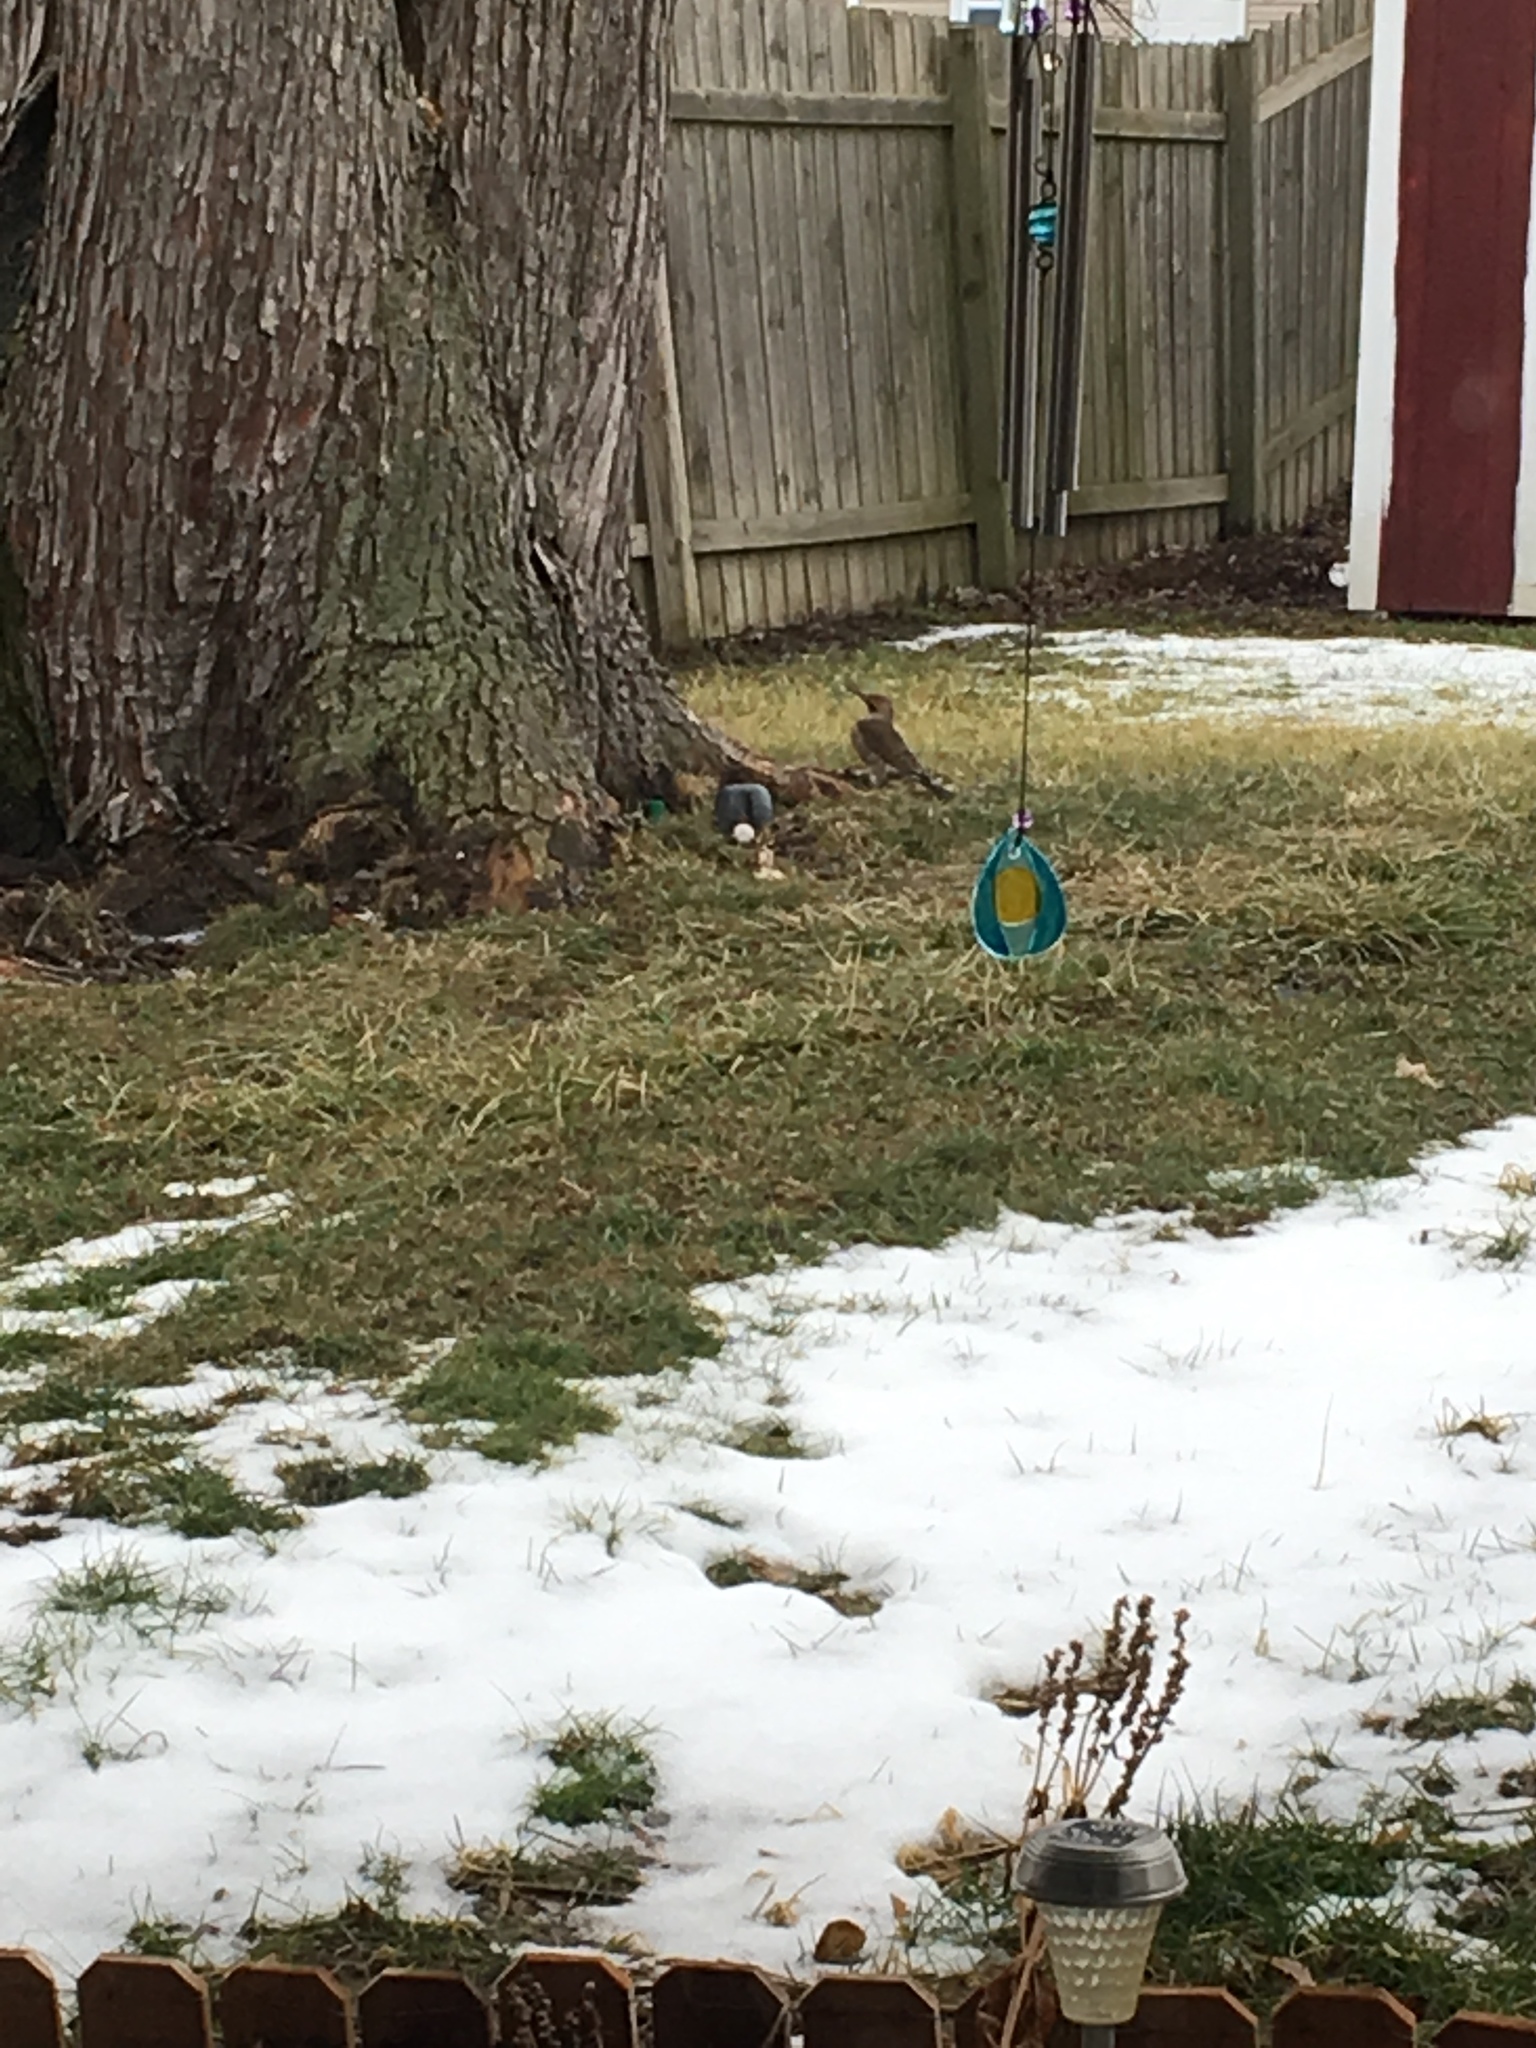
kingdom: Animalia
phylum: Chordata
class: Aves
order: Piciformes
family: Picidae
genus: Colaptes
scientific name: Colaptes auratus
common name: Northern flicker
